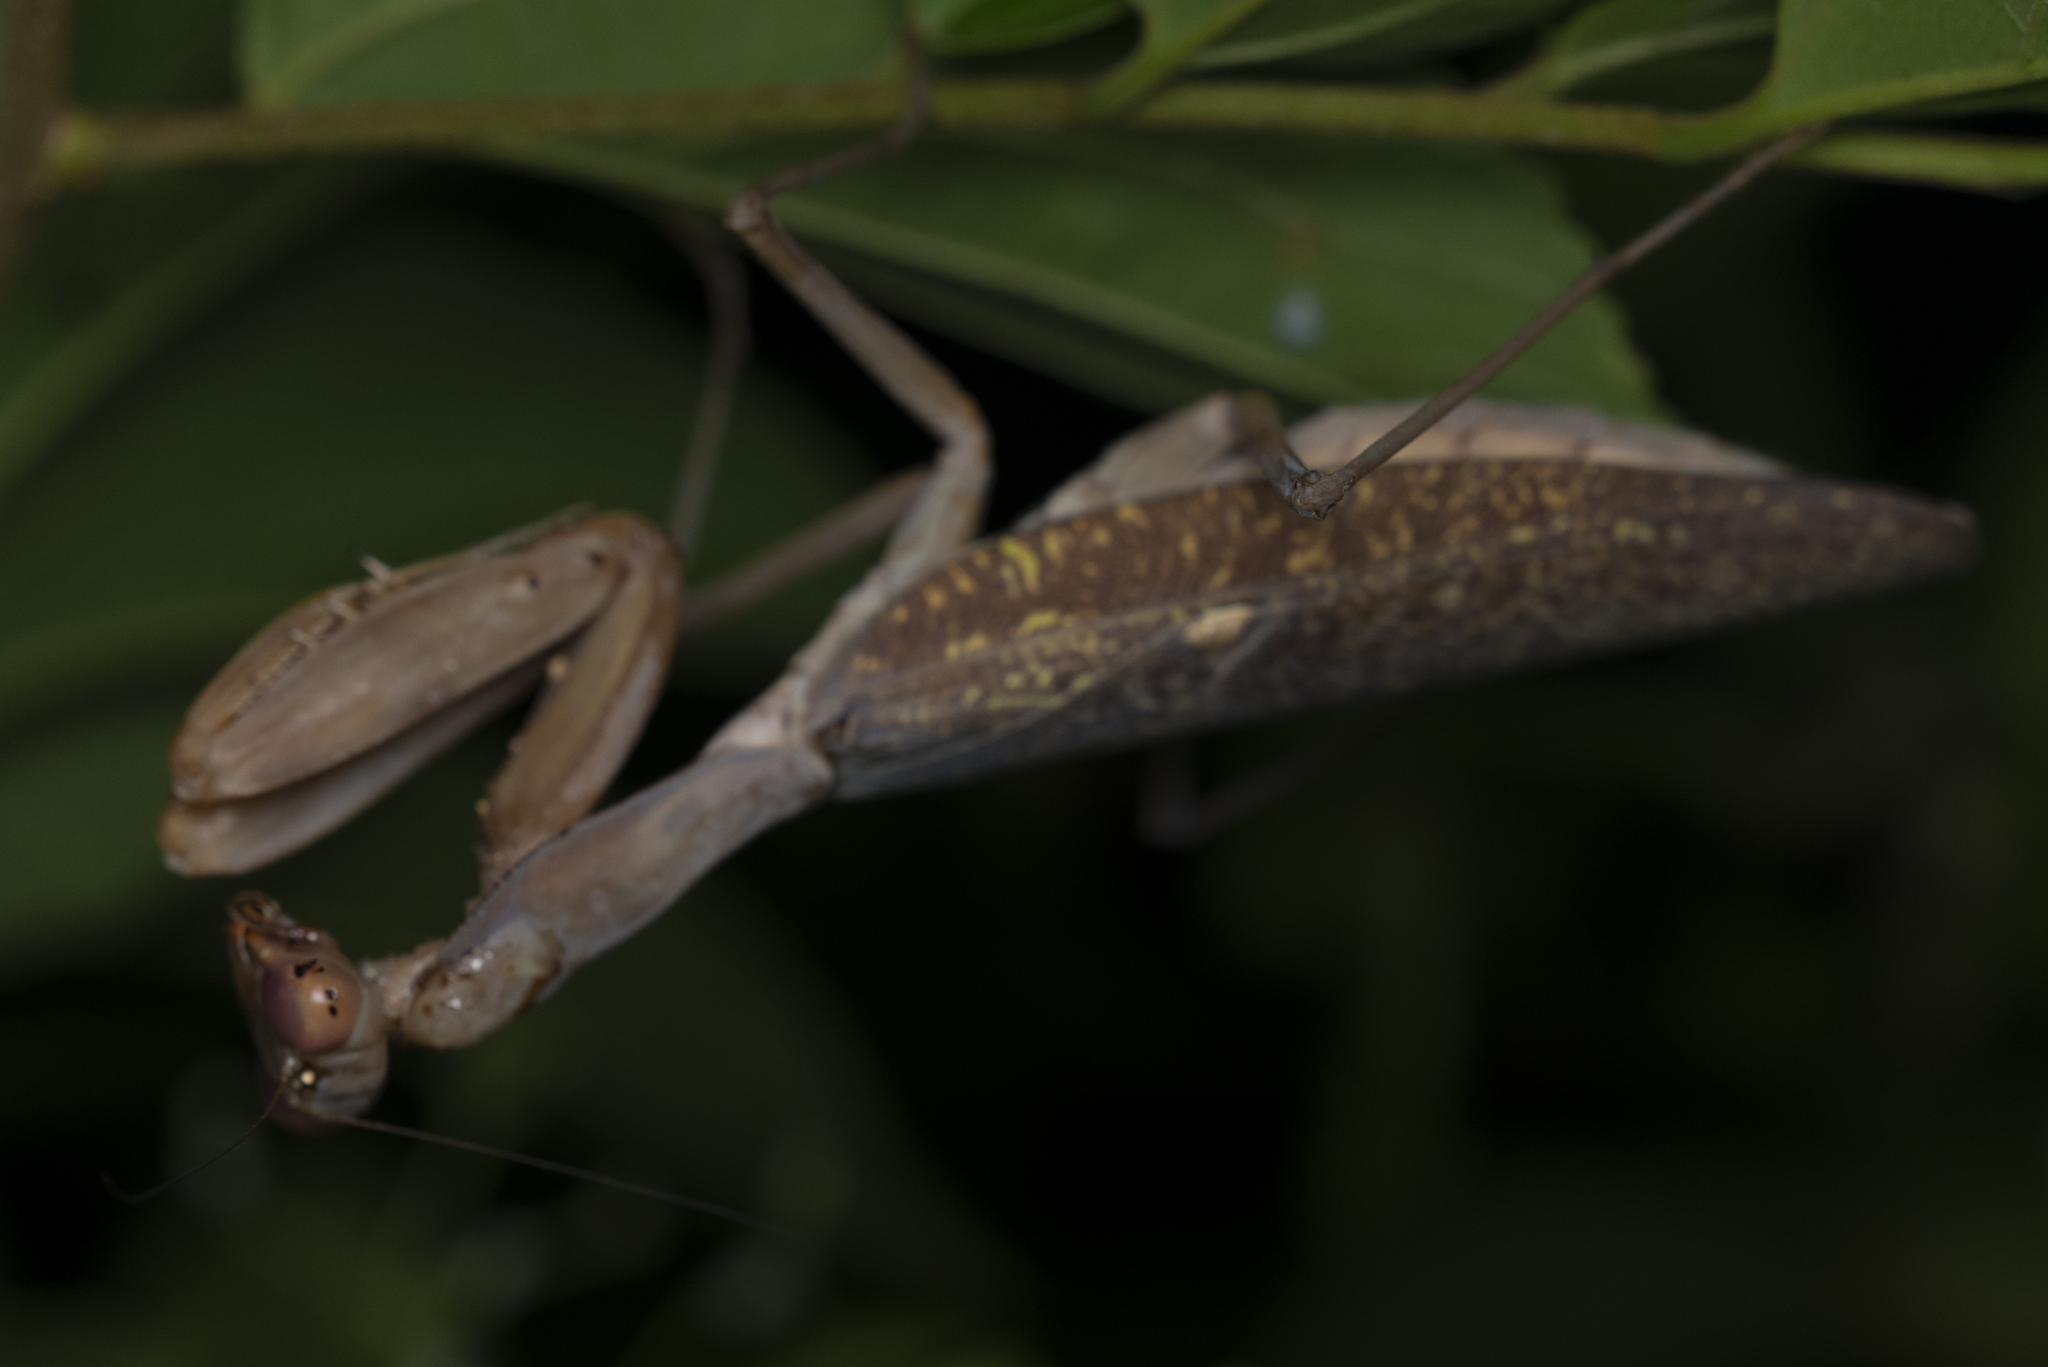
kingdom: Animalia
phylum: Arthropoda
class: Insecta
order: Mantodea
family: Mantidae
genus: Hierodula
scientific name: Hierodula patellifera
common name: Asian mantis
